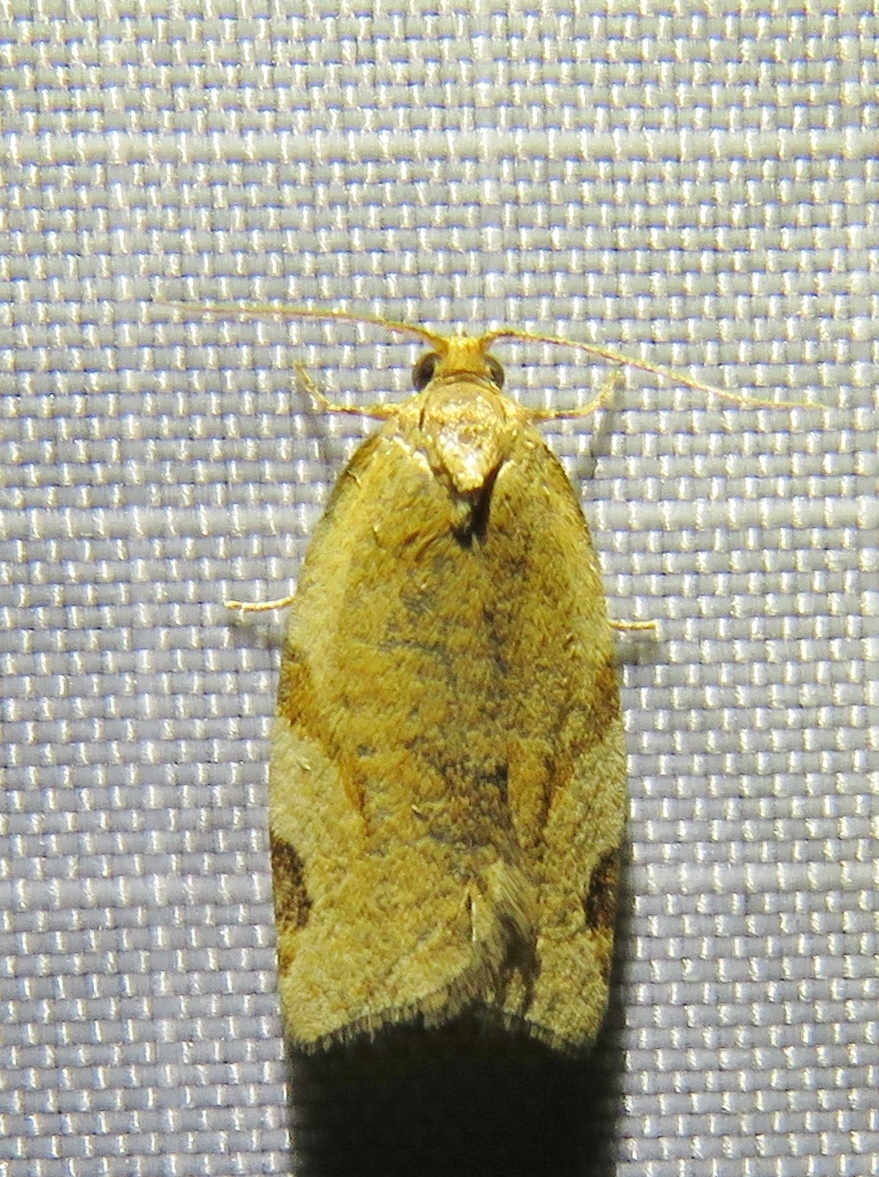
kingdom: Animalia
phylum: Arthropoda
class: Insecta
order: Lepidoptera
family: Tortricidae
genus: Paramesia
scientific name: Paramesia gnomana
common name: Small straw twist
